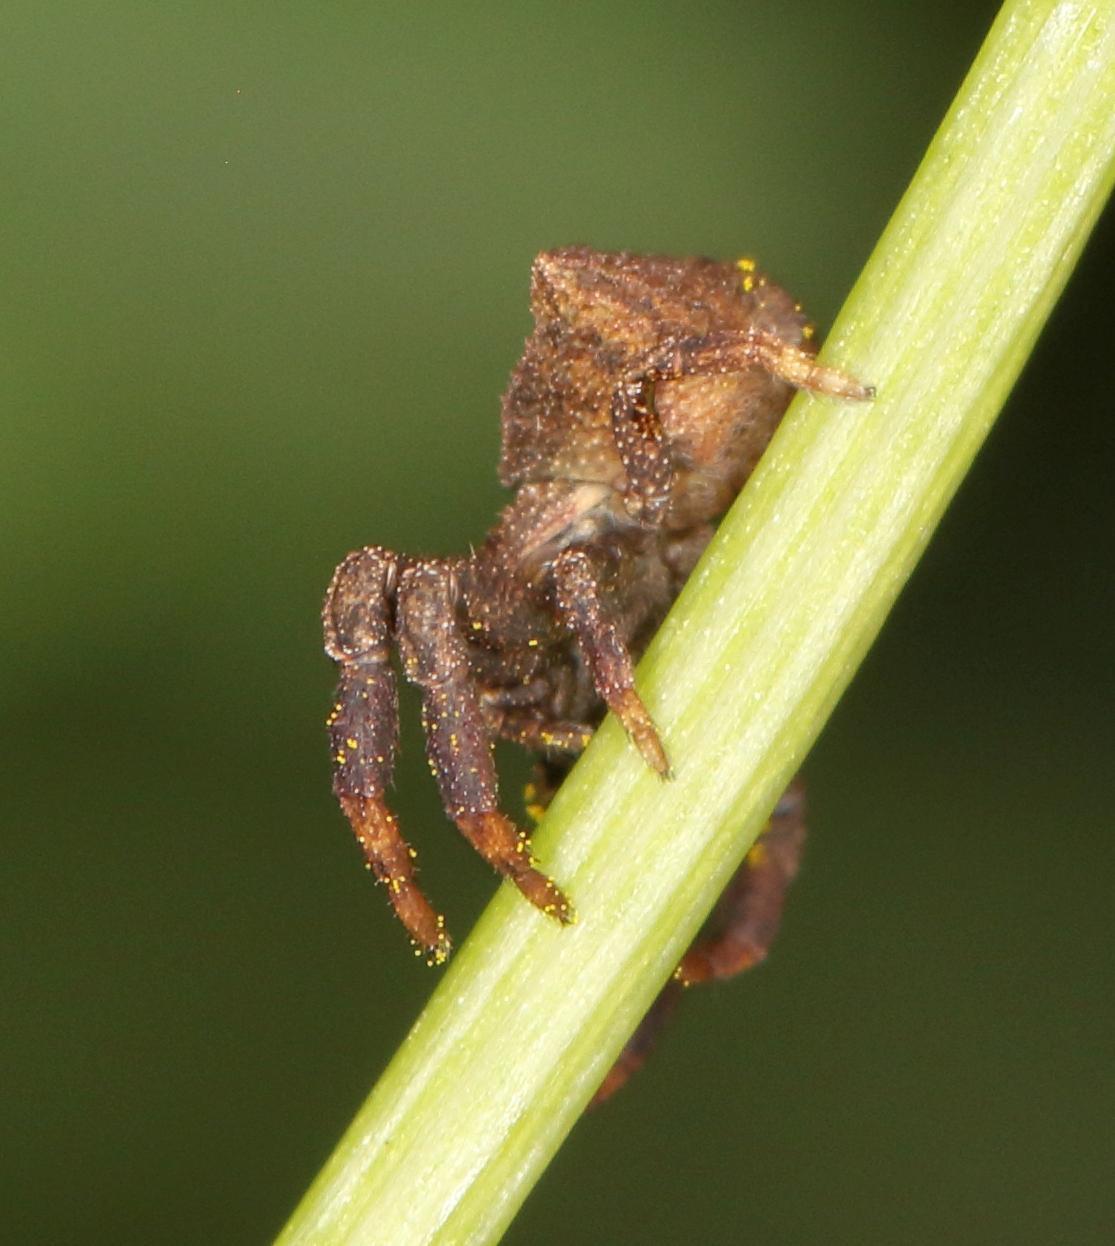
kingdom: Animalia
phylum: Arthropoda
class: Arachnida
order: Araneae
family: Thomisidae
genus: Thomisus
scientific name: Thomisus scrupeus
